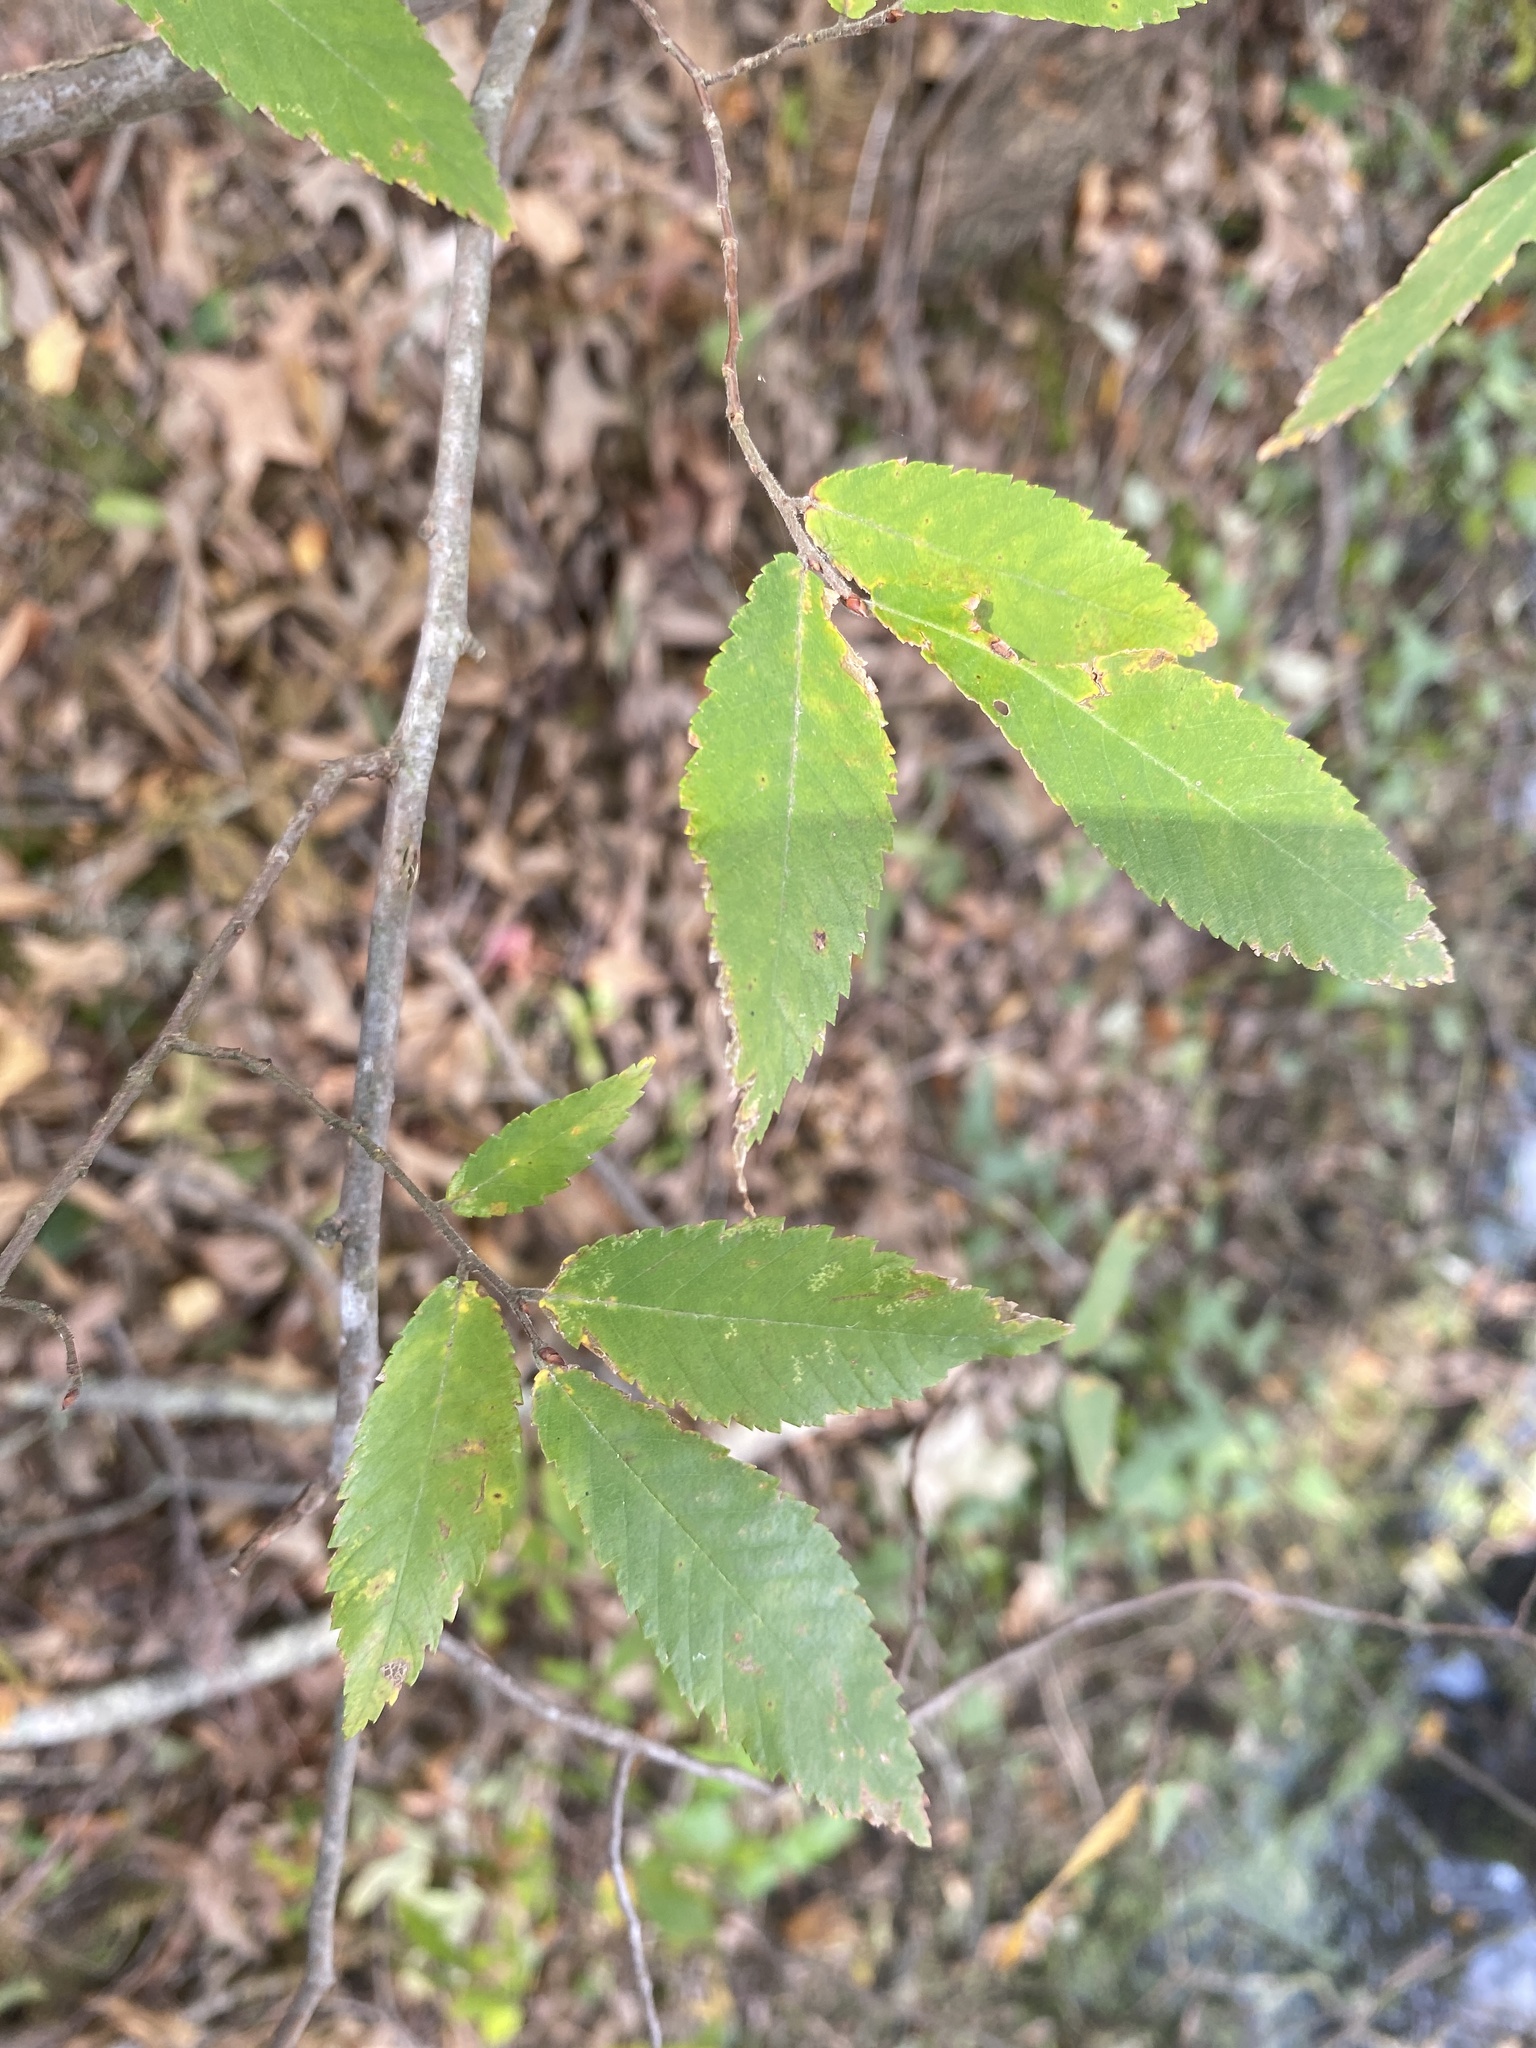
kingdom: Plantae
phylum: Tracheophyta
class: Magnoliopsida
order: Rosales
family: Ulmaceae
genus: Ulmus
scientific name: Ulmus crassifolia
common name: Basket elm
